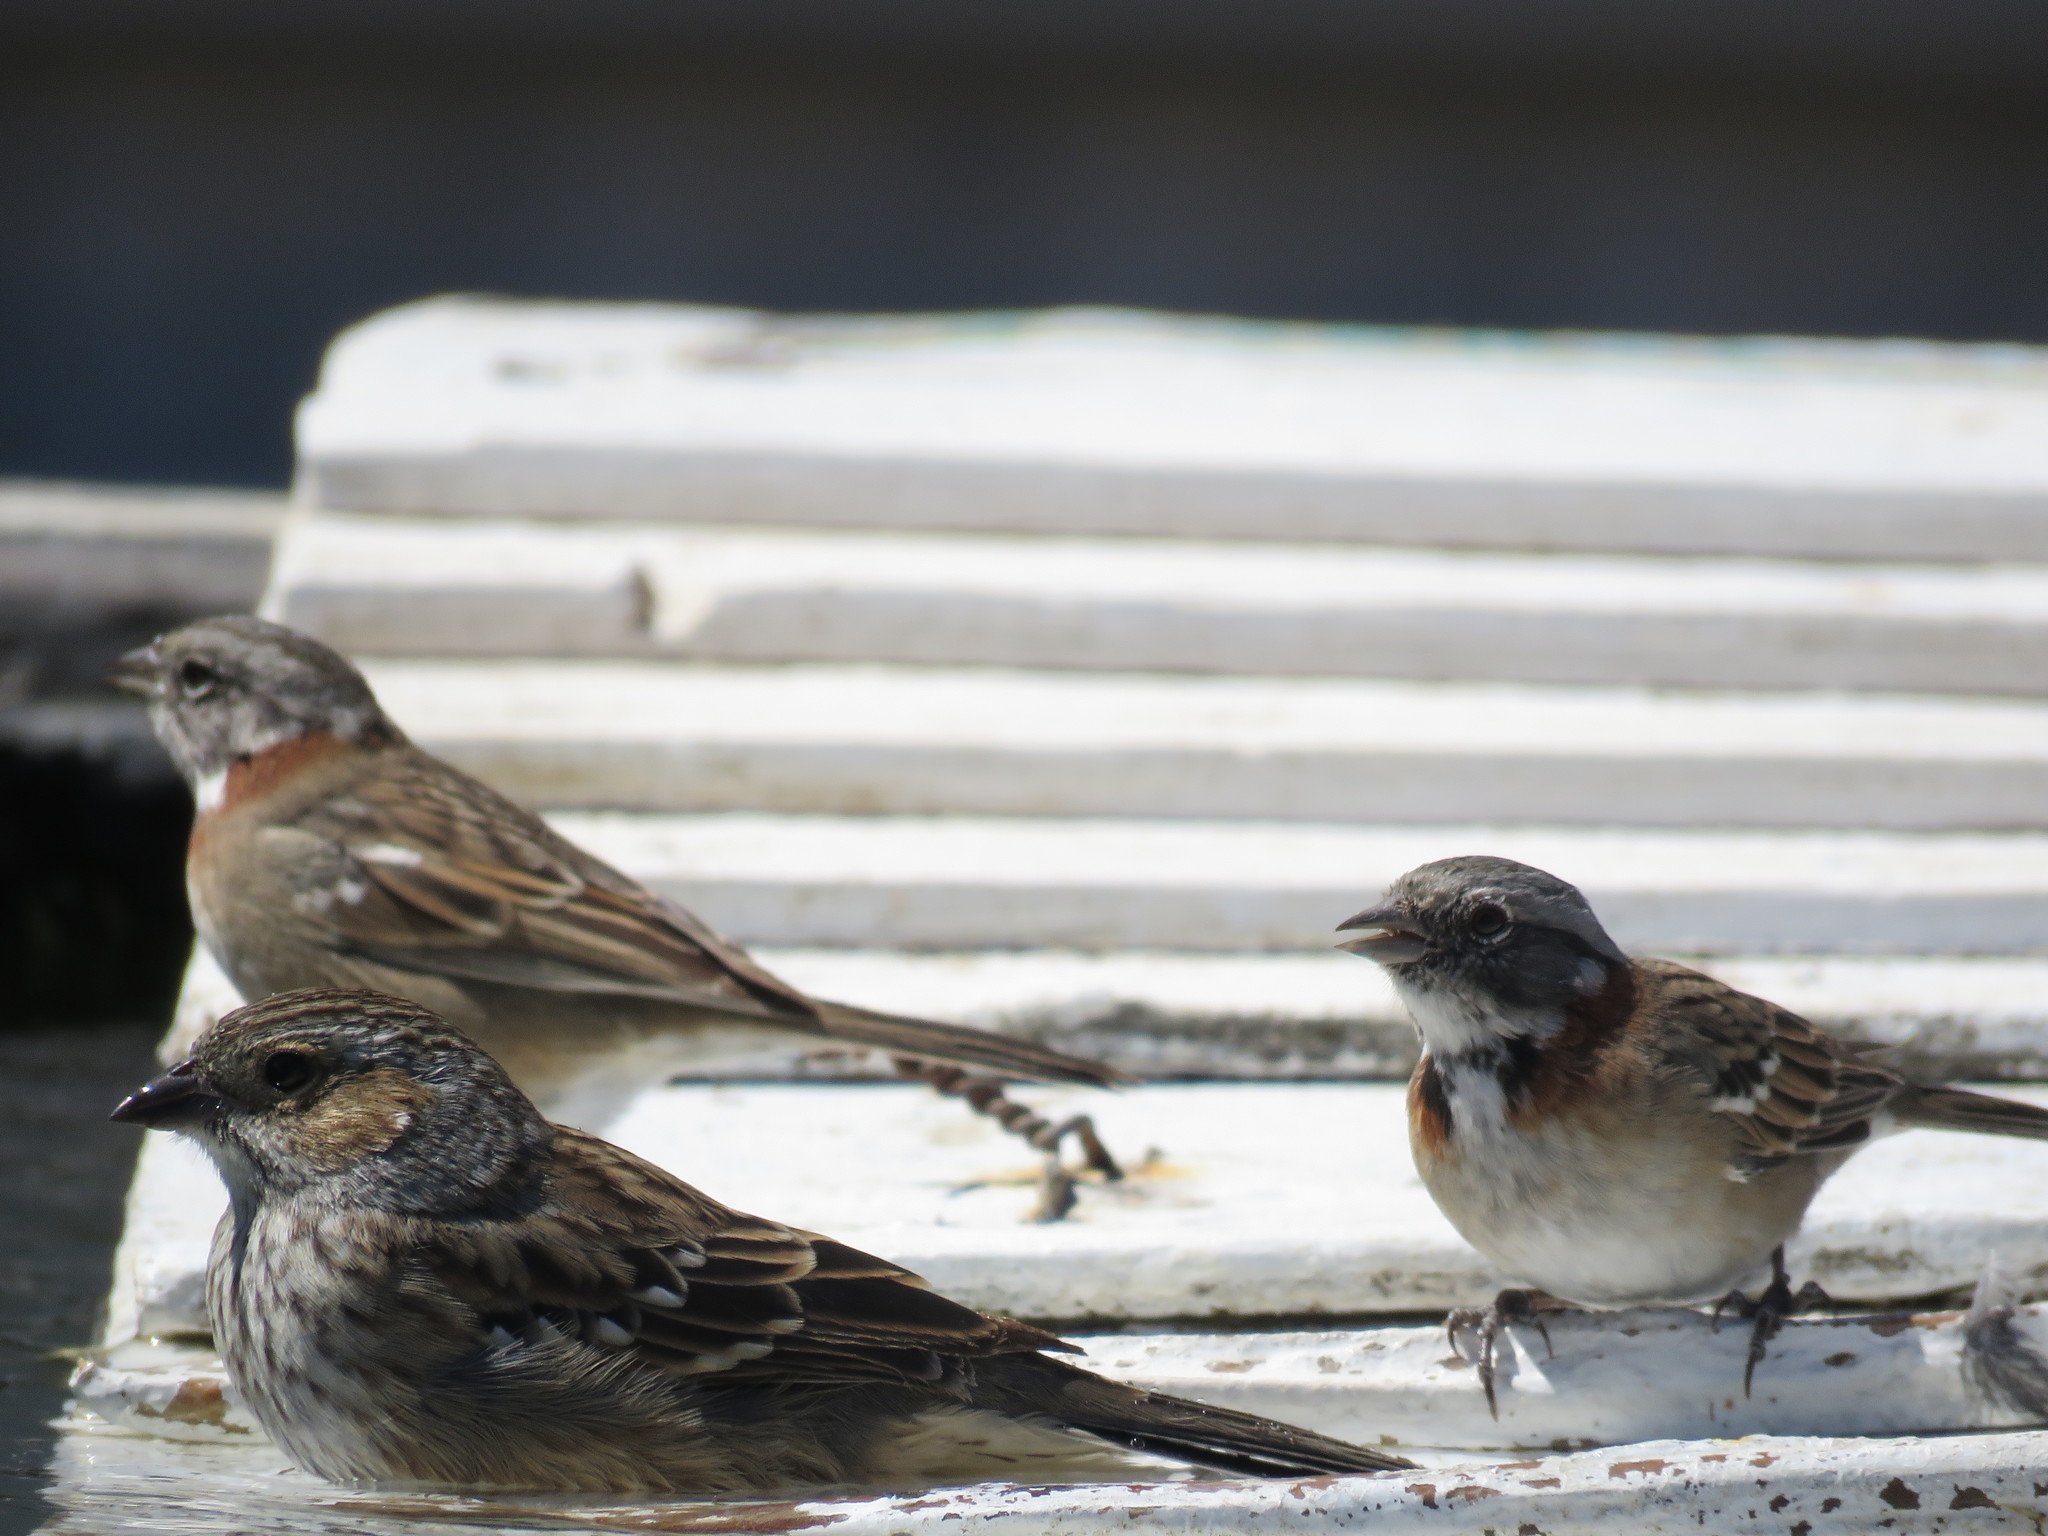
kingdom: Animalia
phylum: Chordata
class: Aves
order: Passeriformes
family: Passerellidae
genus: Zonotrichia
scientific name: Zonotrichia capensis
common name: Rufous-collared sparrow
